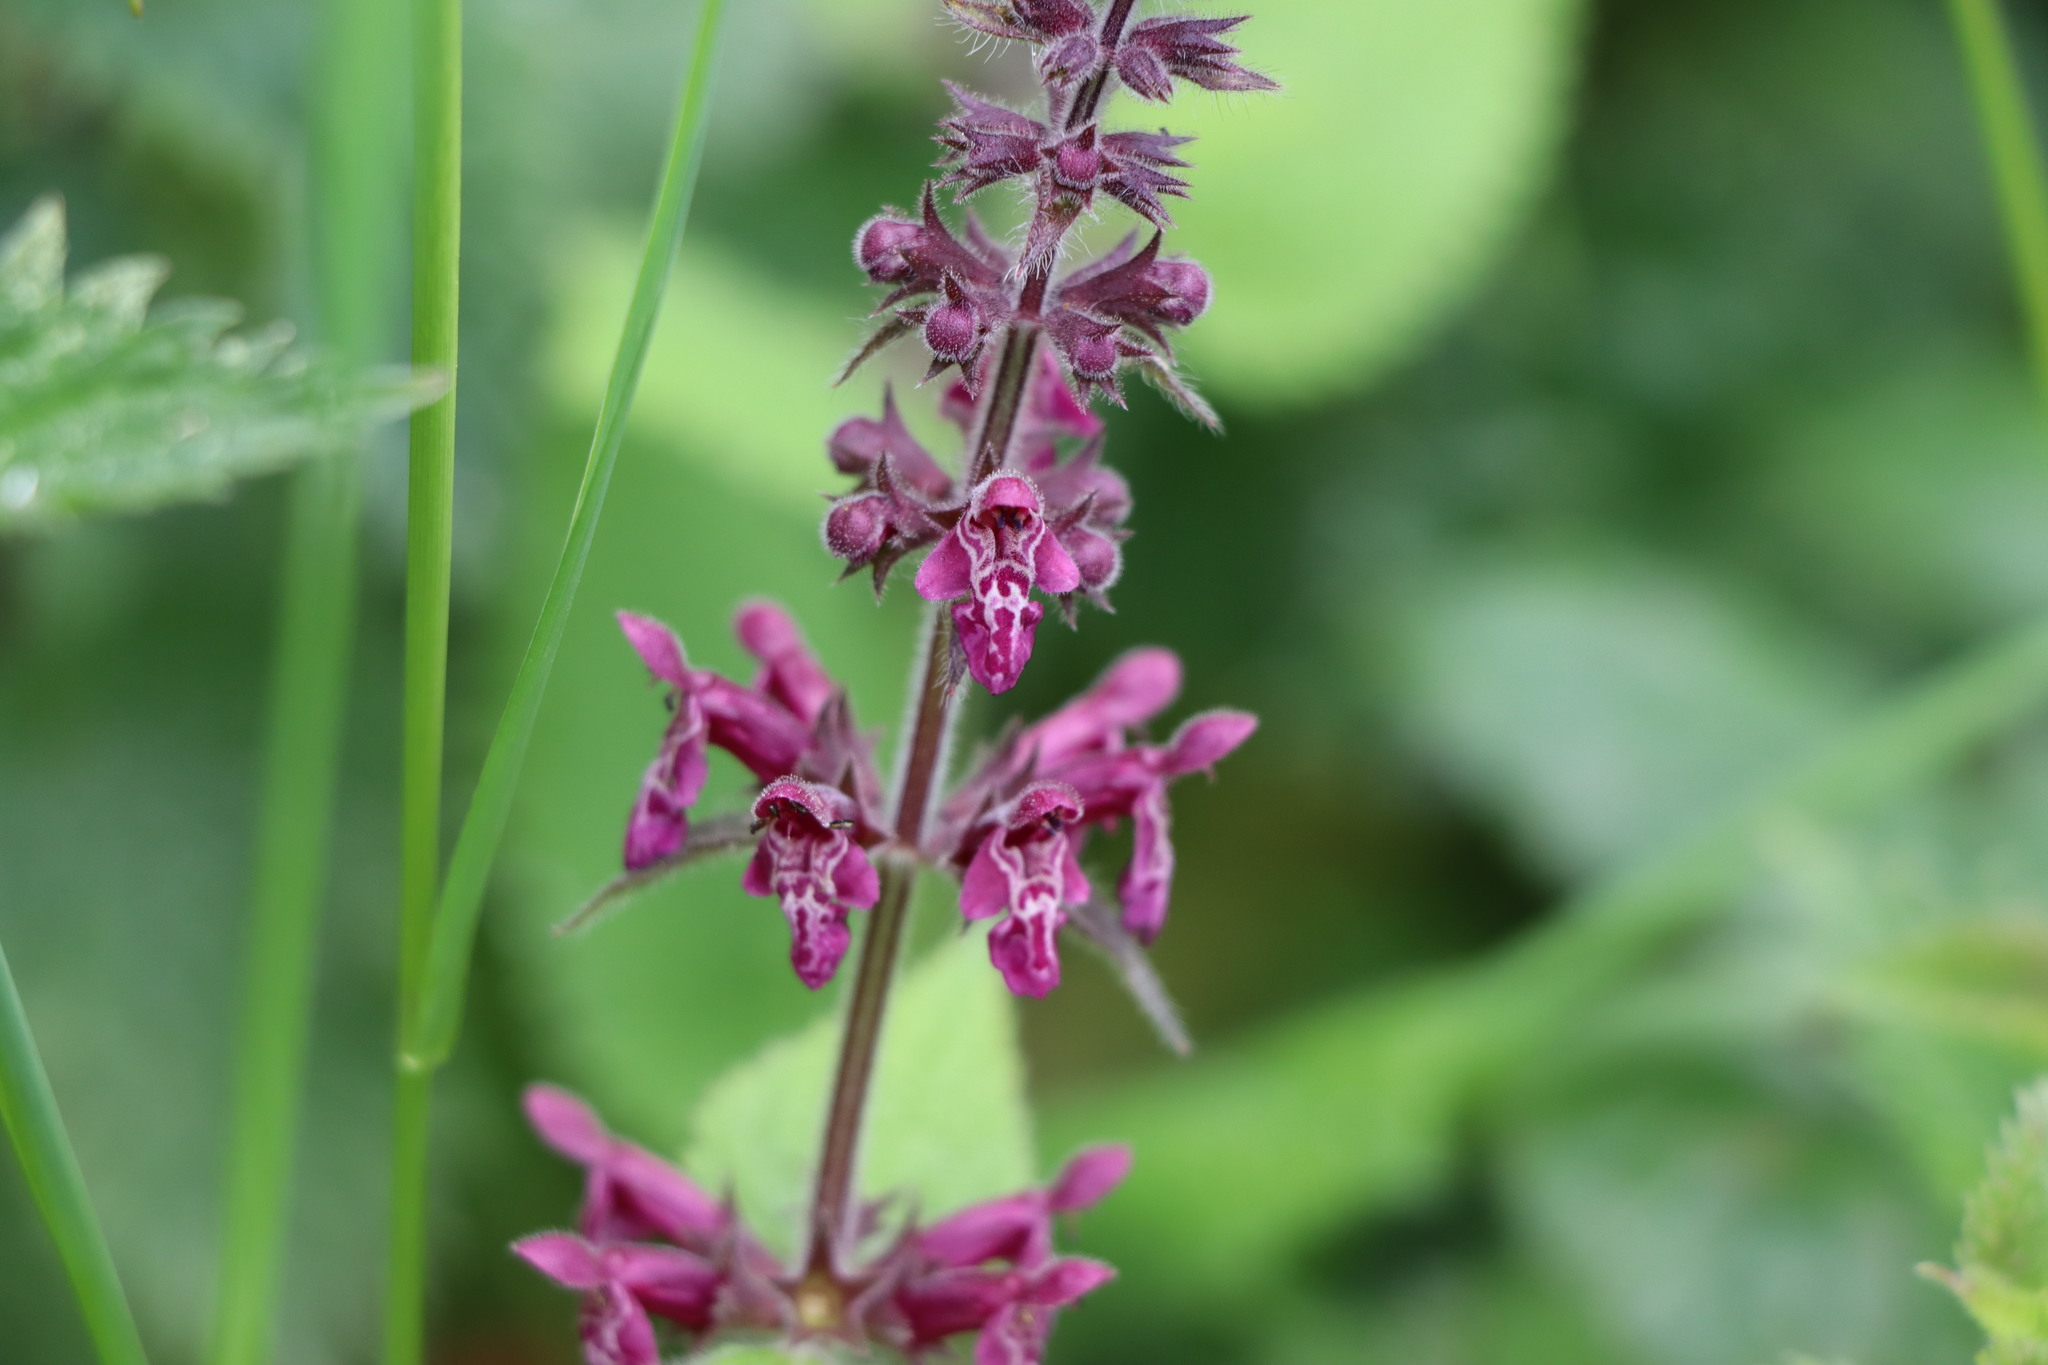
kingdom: Plantae
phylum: Tracheophyta
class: Magnoliopsida
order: Lamiales
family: Lamiaceae
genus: Stachys
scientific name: Stachys sylvatica
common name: Hedge woundwort
